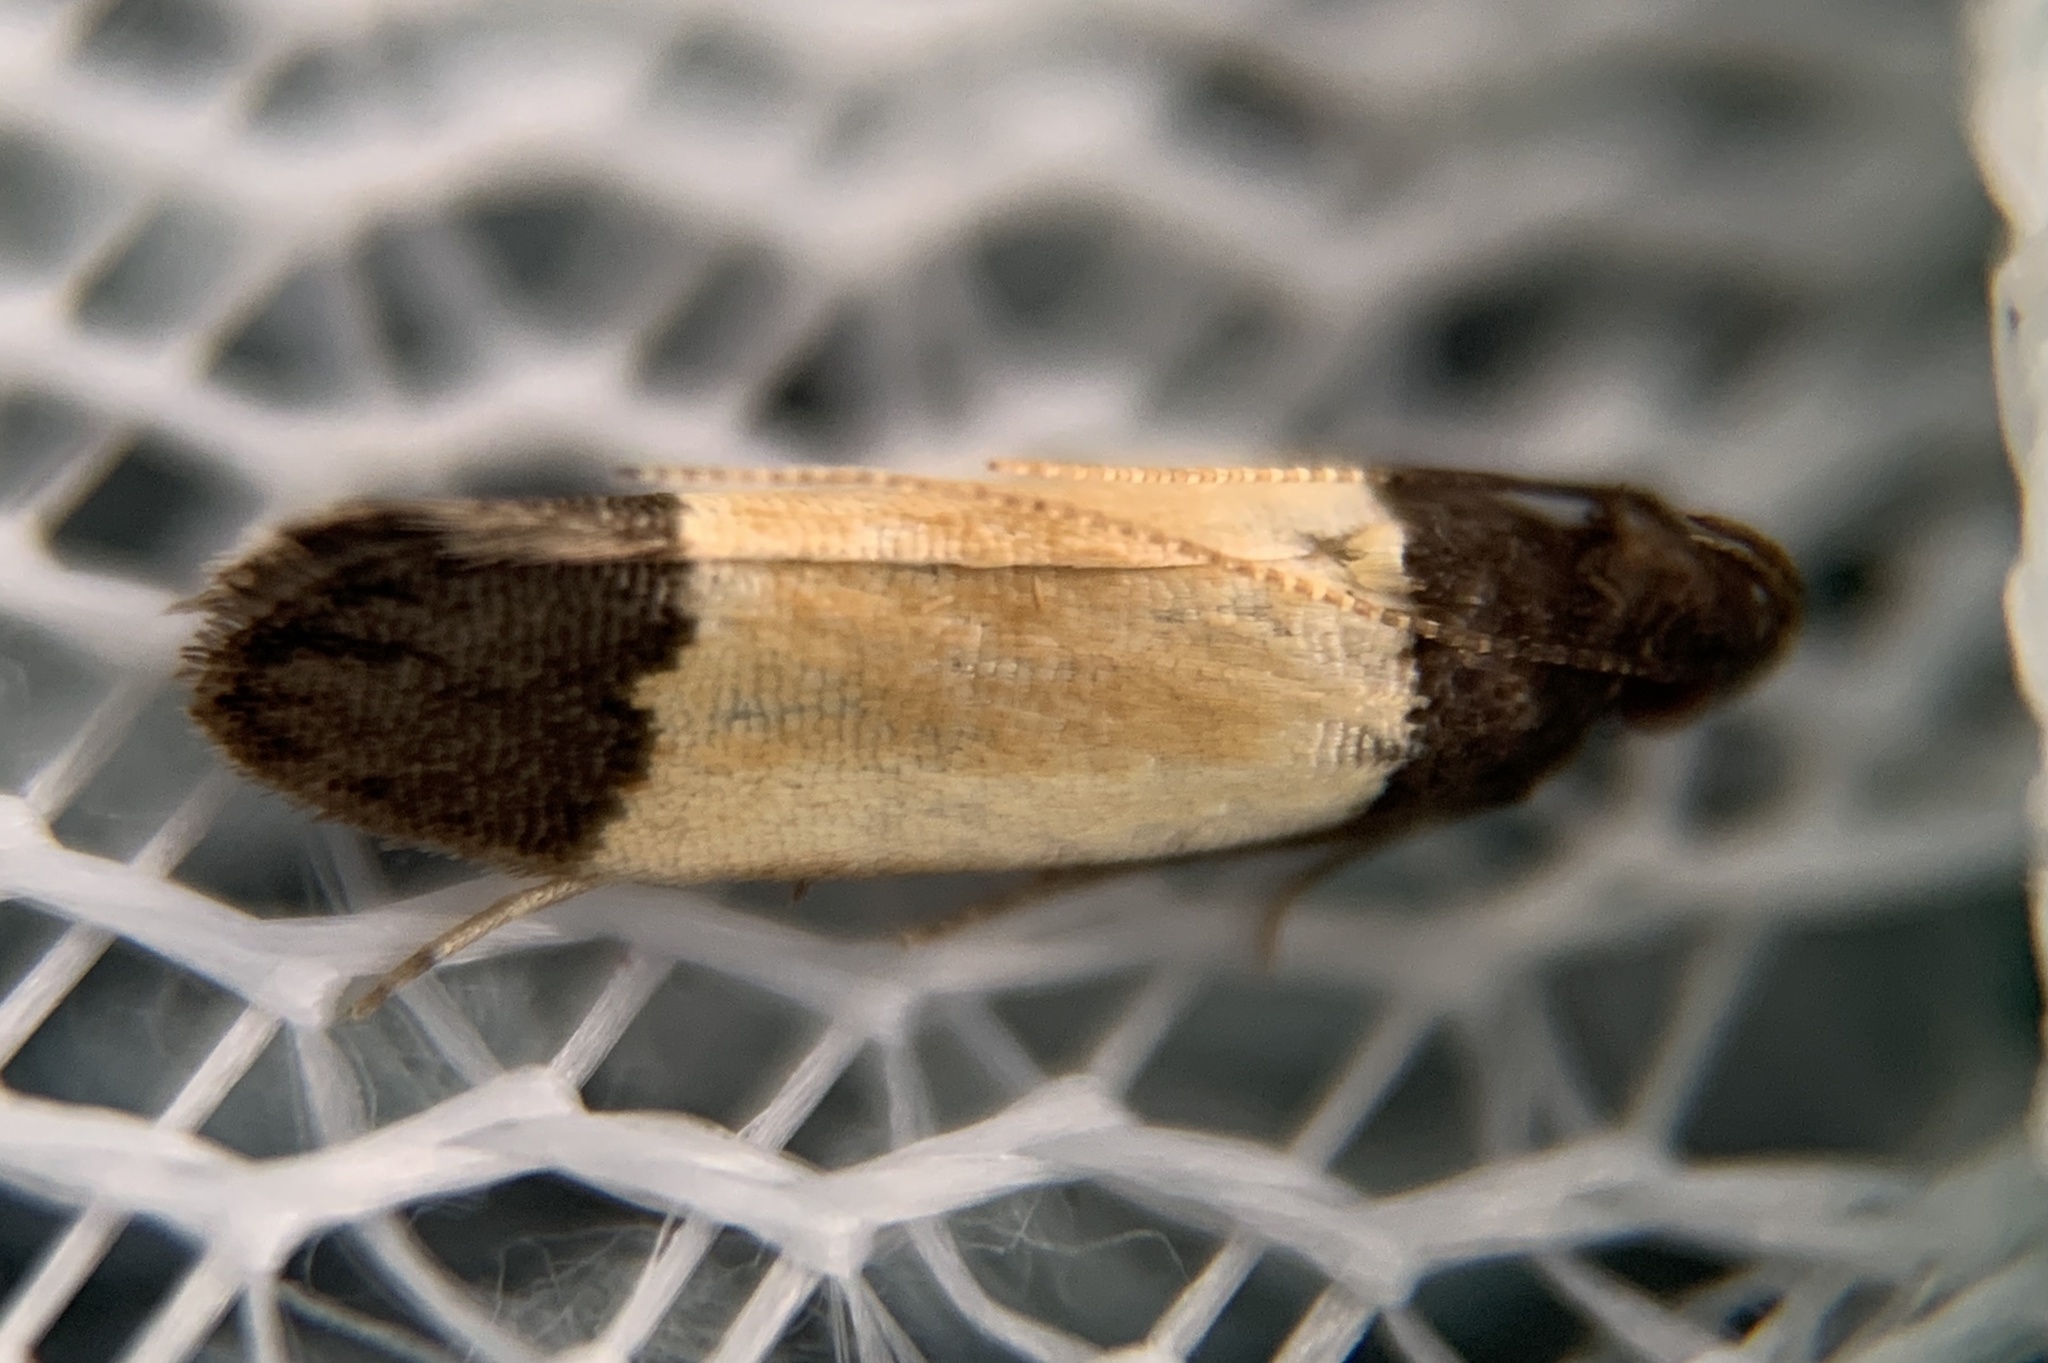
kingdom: Animalia
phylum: Arthropoda
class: Insecta
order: Lepidoptera
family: Gelechiidae
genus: Anacampsis
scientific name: Anacampsis coverdalella
